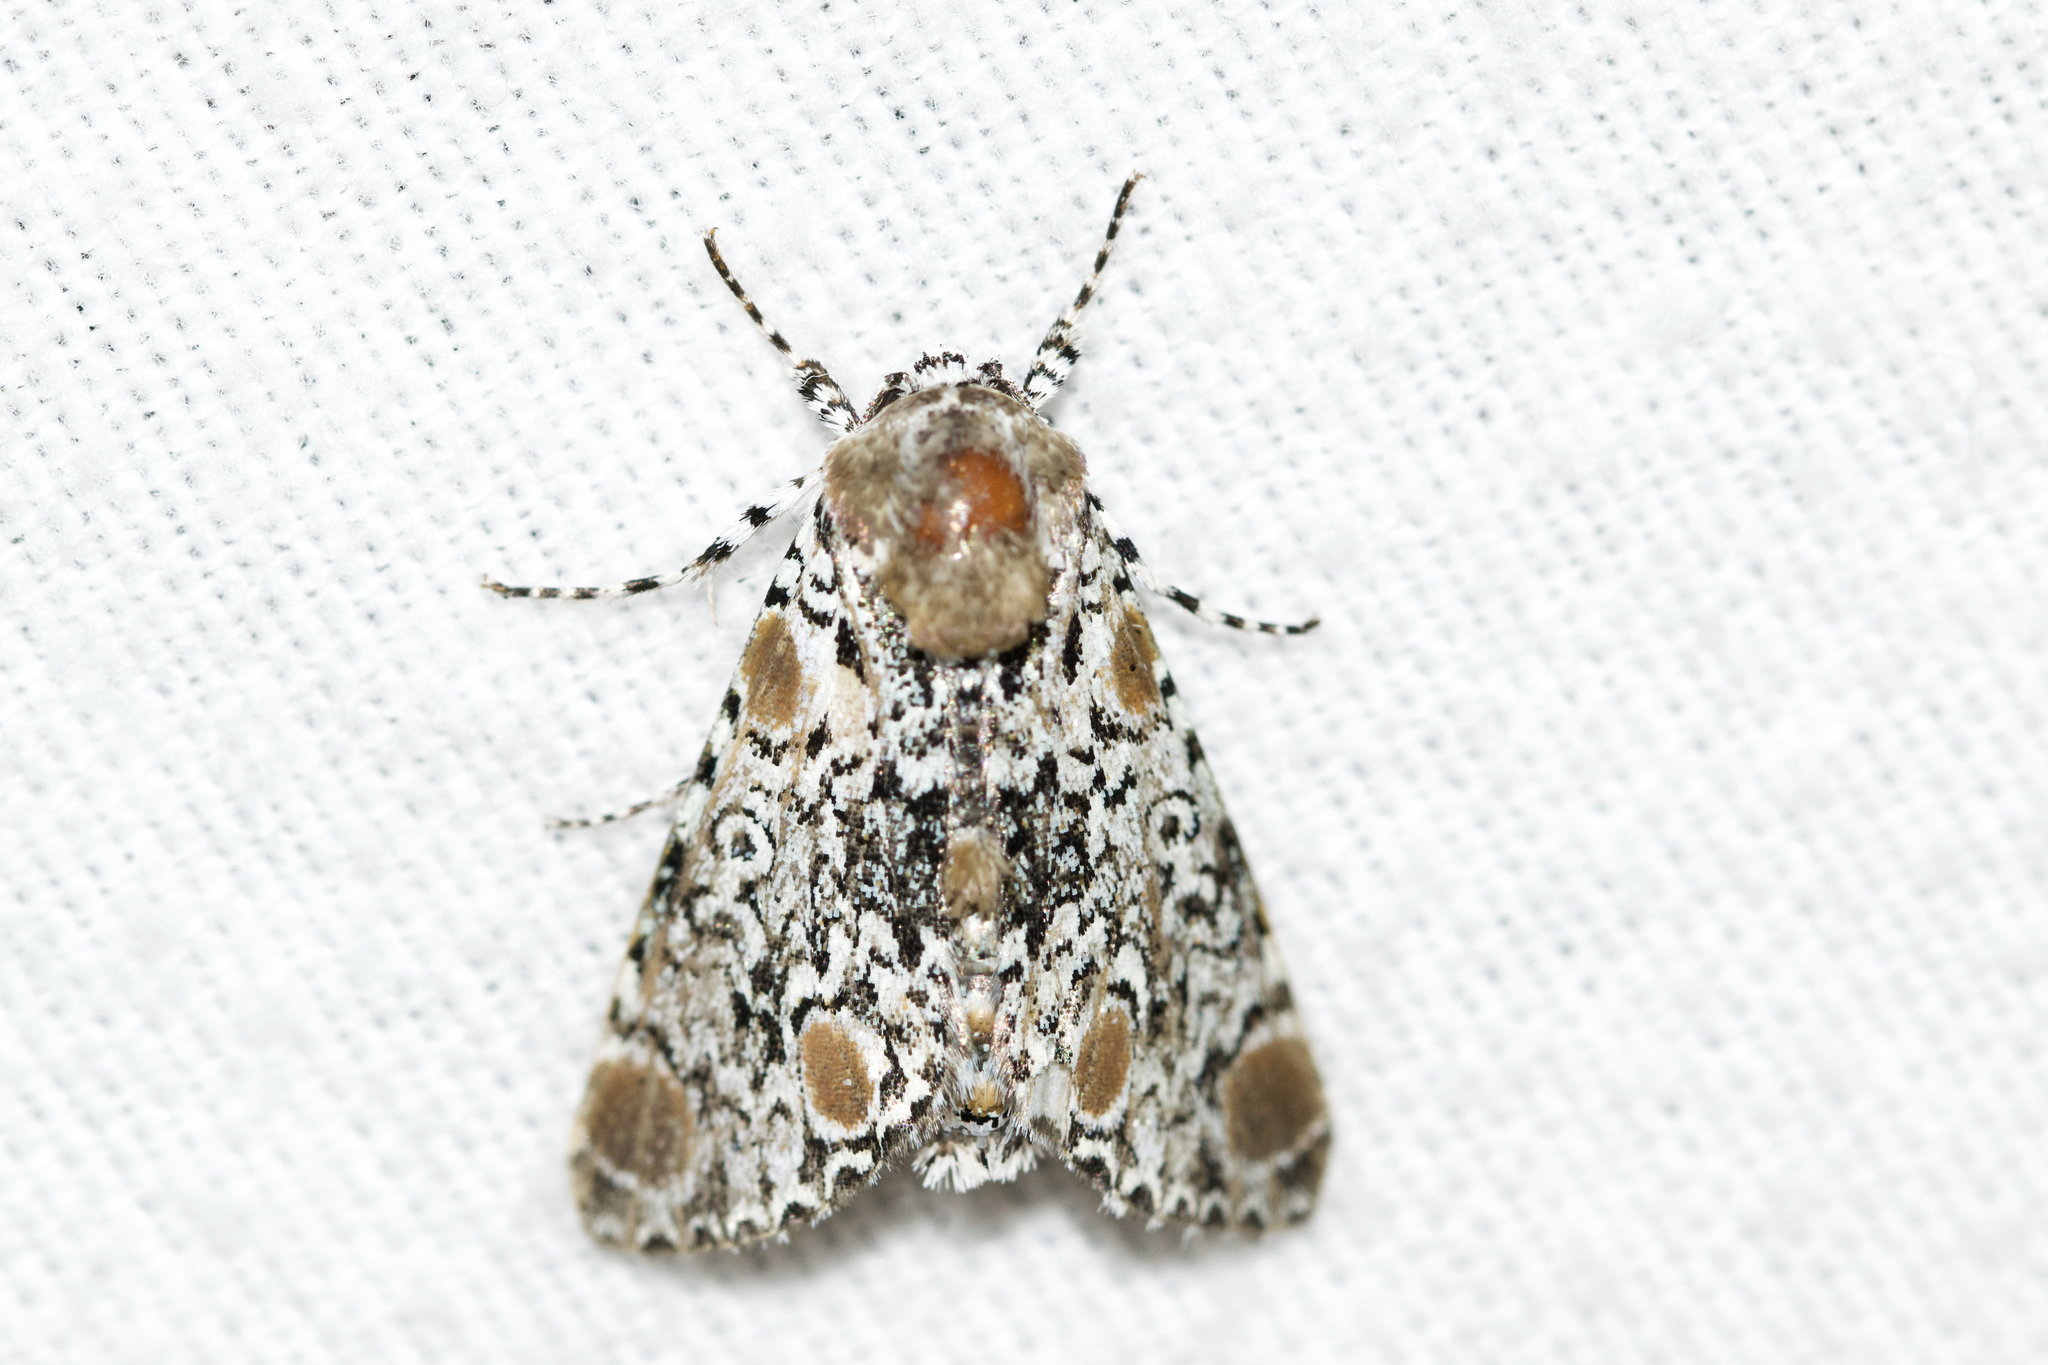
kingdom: Animalia
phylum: Arthropoda
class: Insecta
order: Lepidoptera
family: Noctuidae
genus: Harrisimemna
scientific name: Harrisimemna trisignata
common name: Harris threespot
